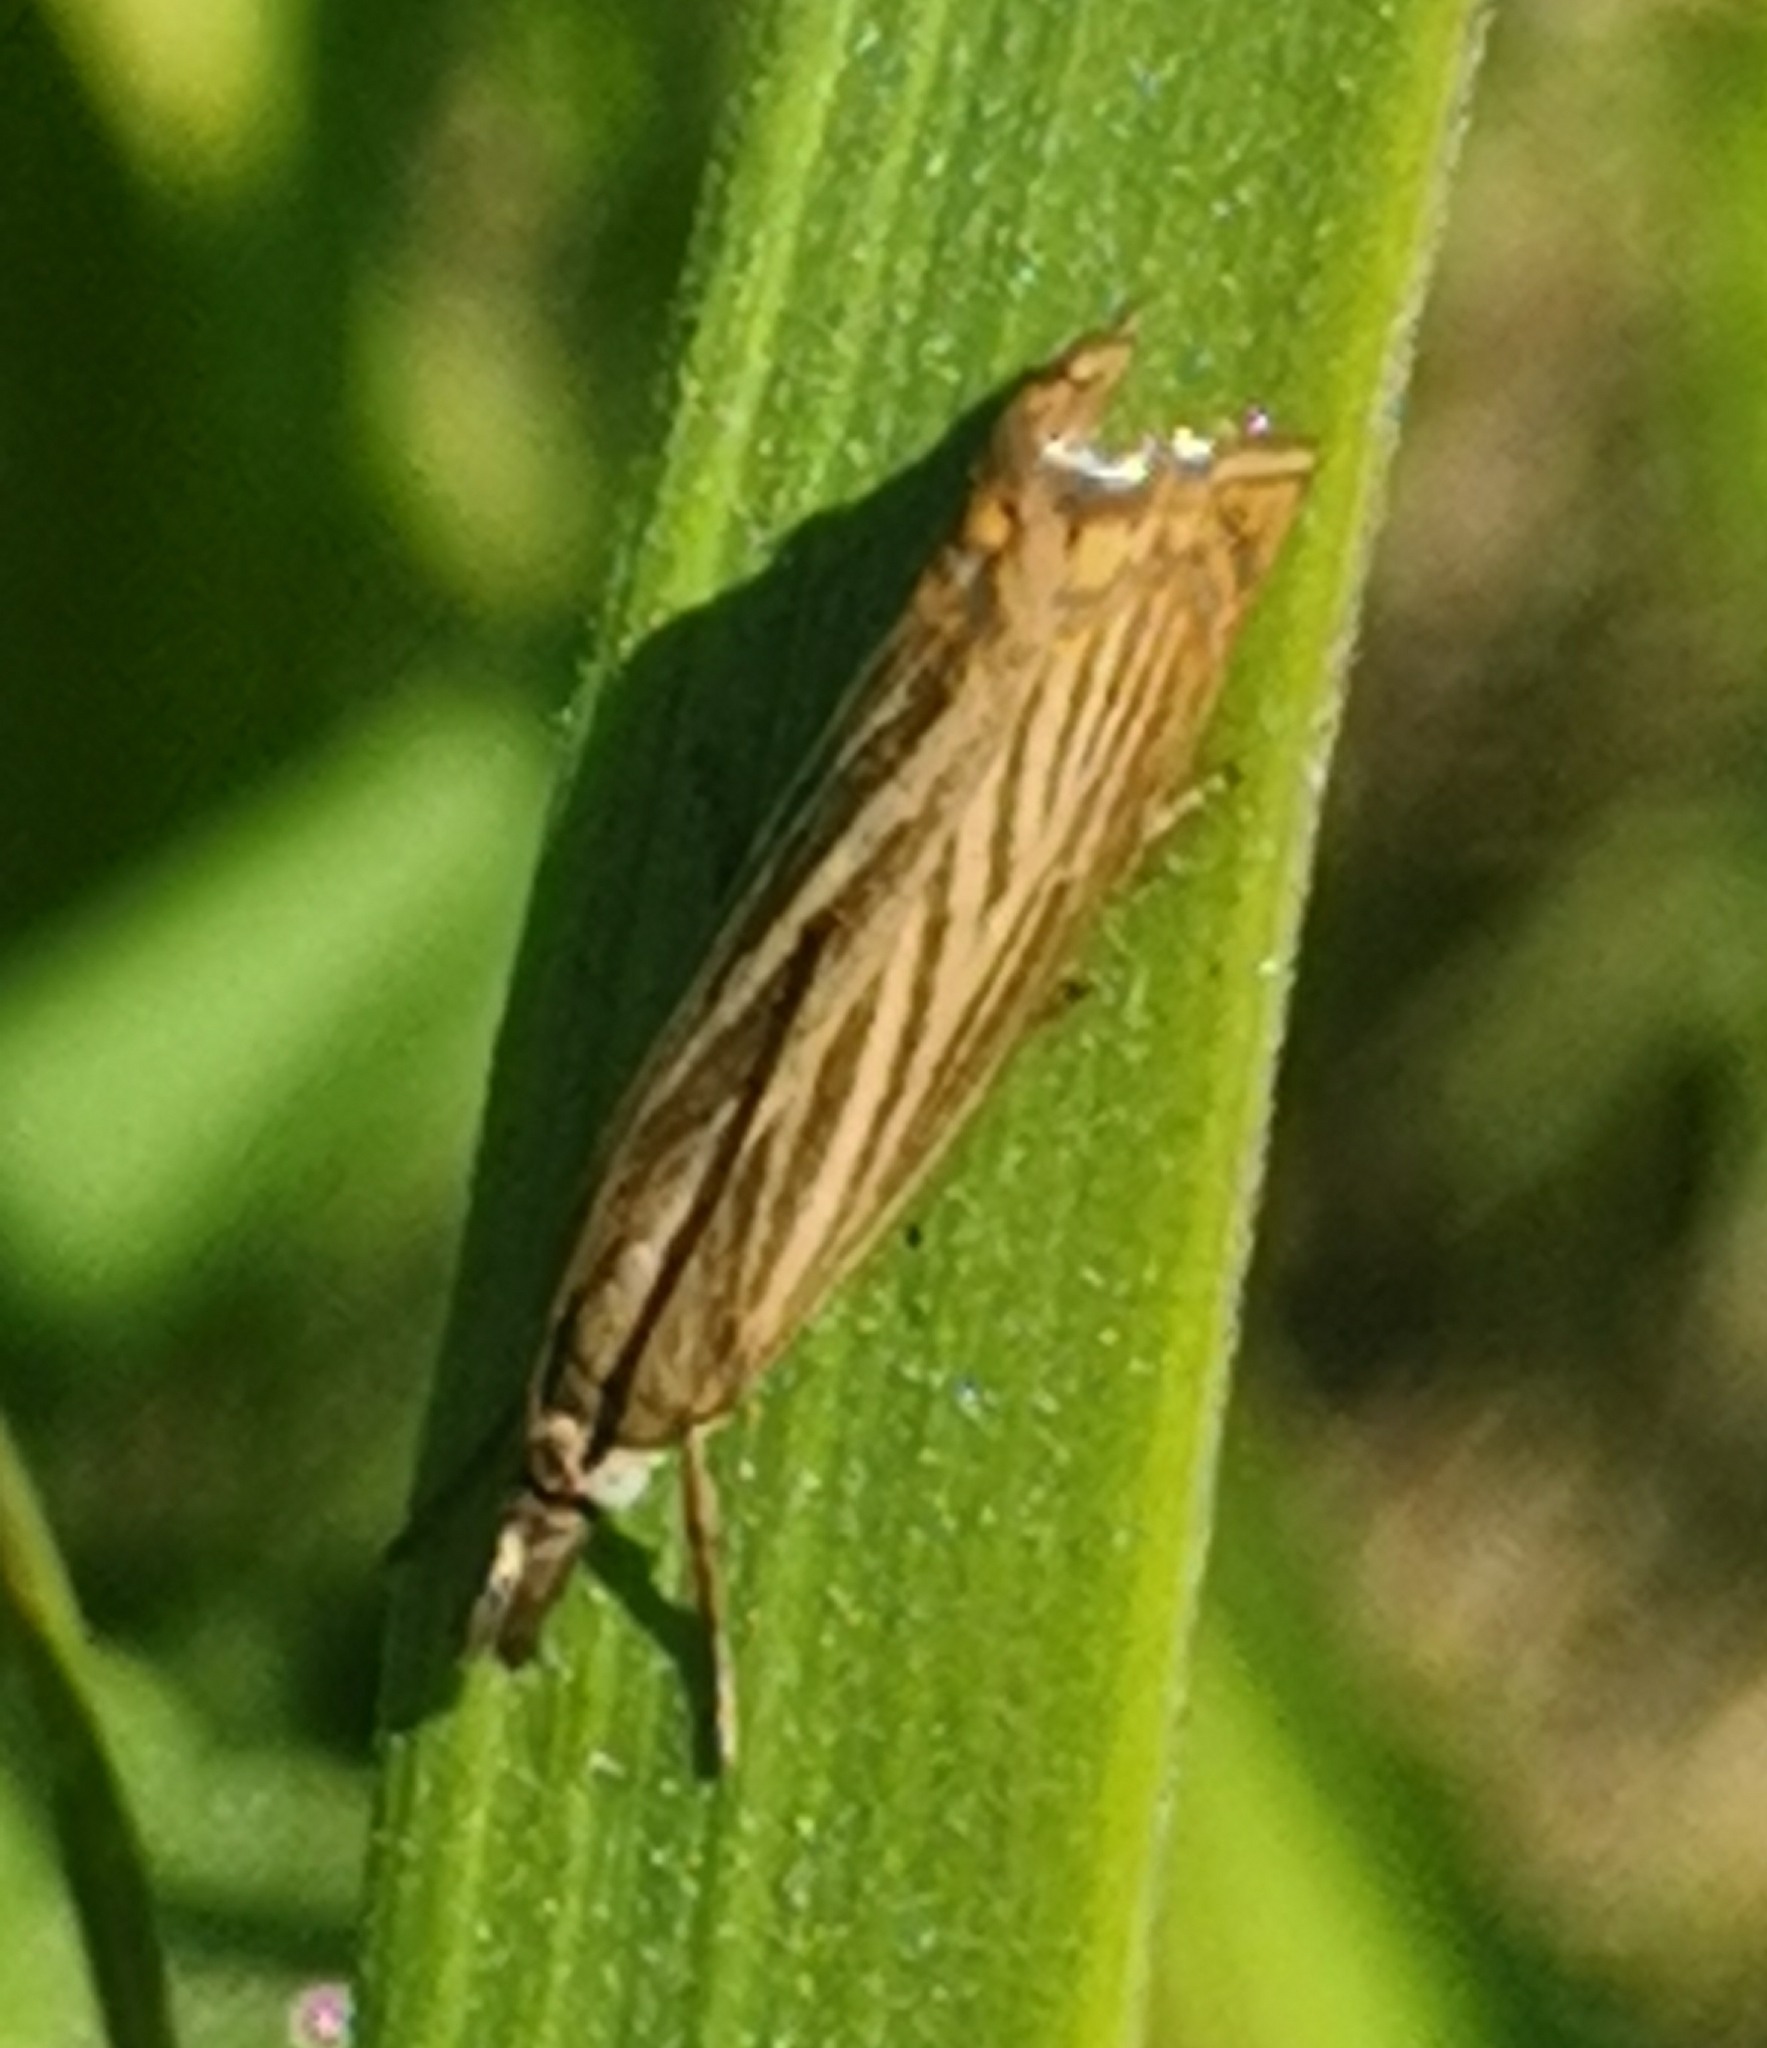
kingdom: Animalia
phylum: Arthropoda
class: Insecta
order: Lepidoptera
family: Crambidae
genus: Chrysoteuchia
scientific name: Chrysoteuchia culmella
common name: Garden grass-veneer
